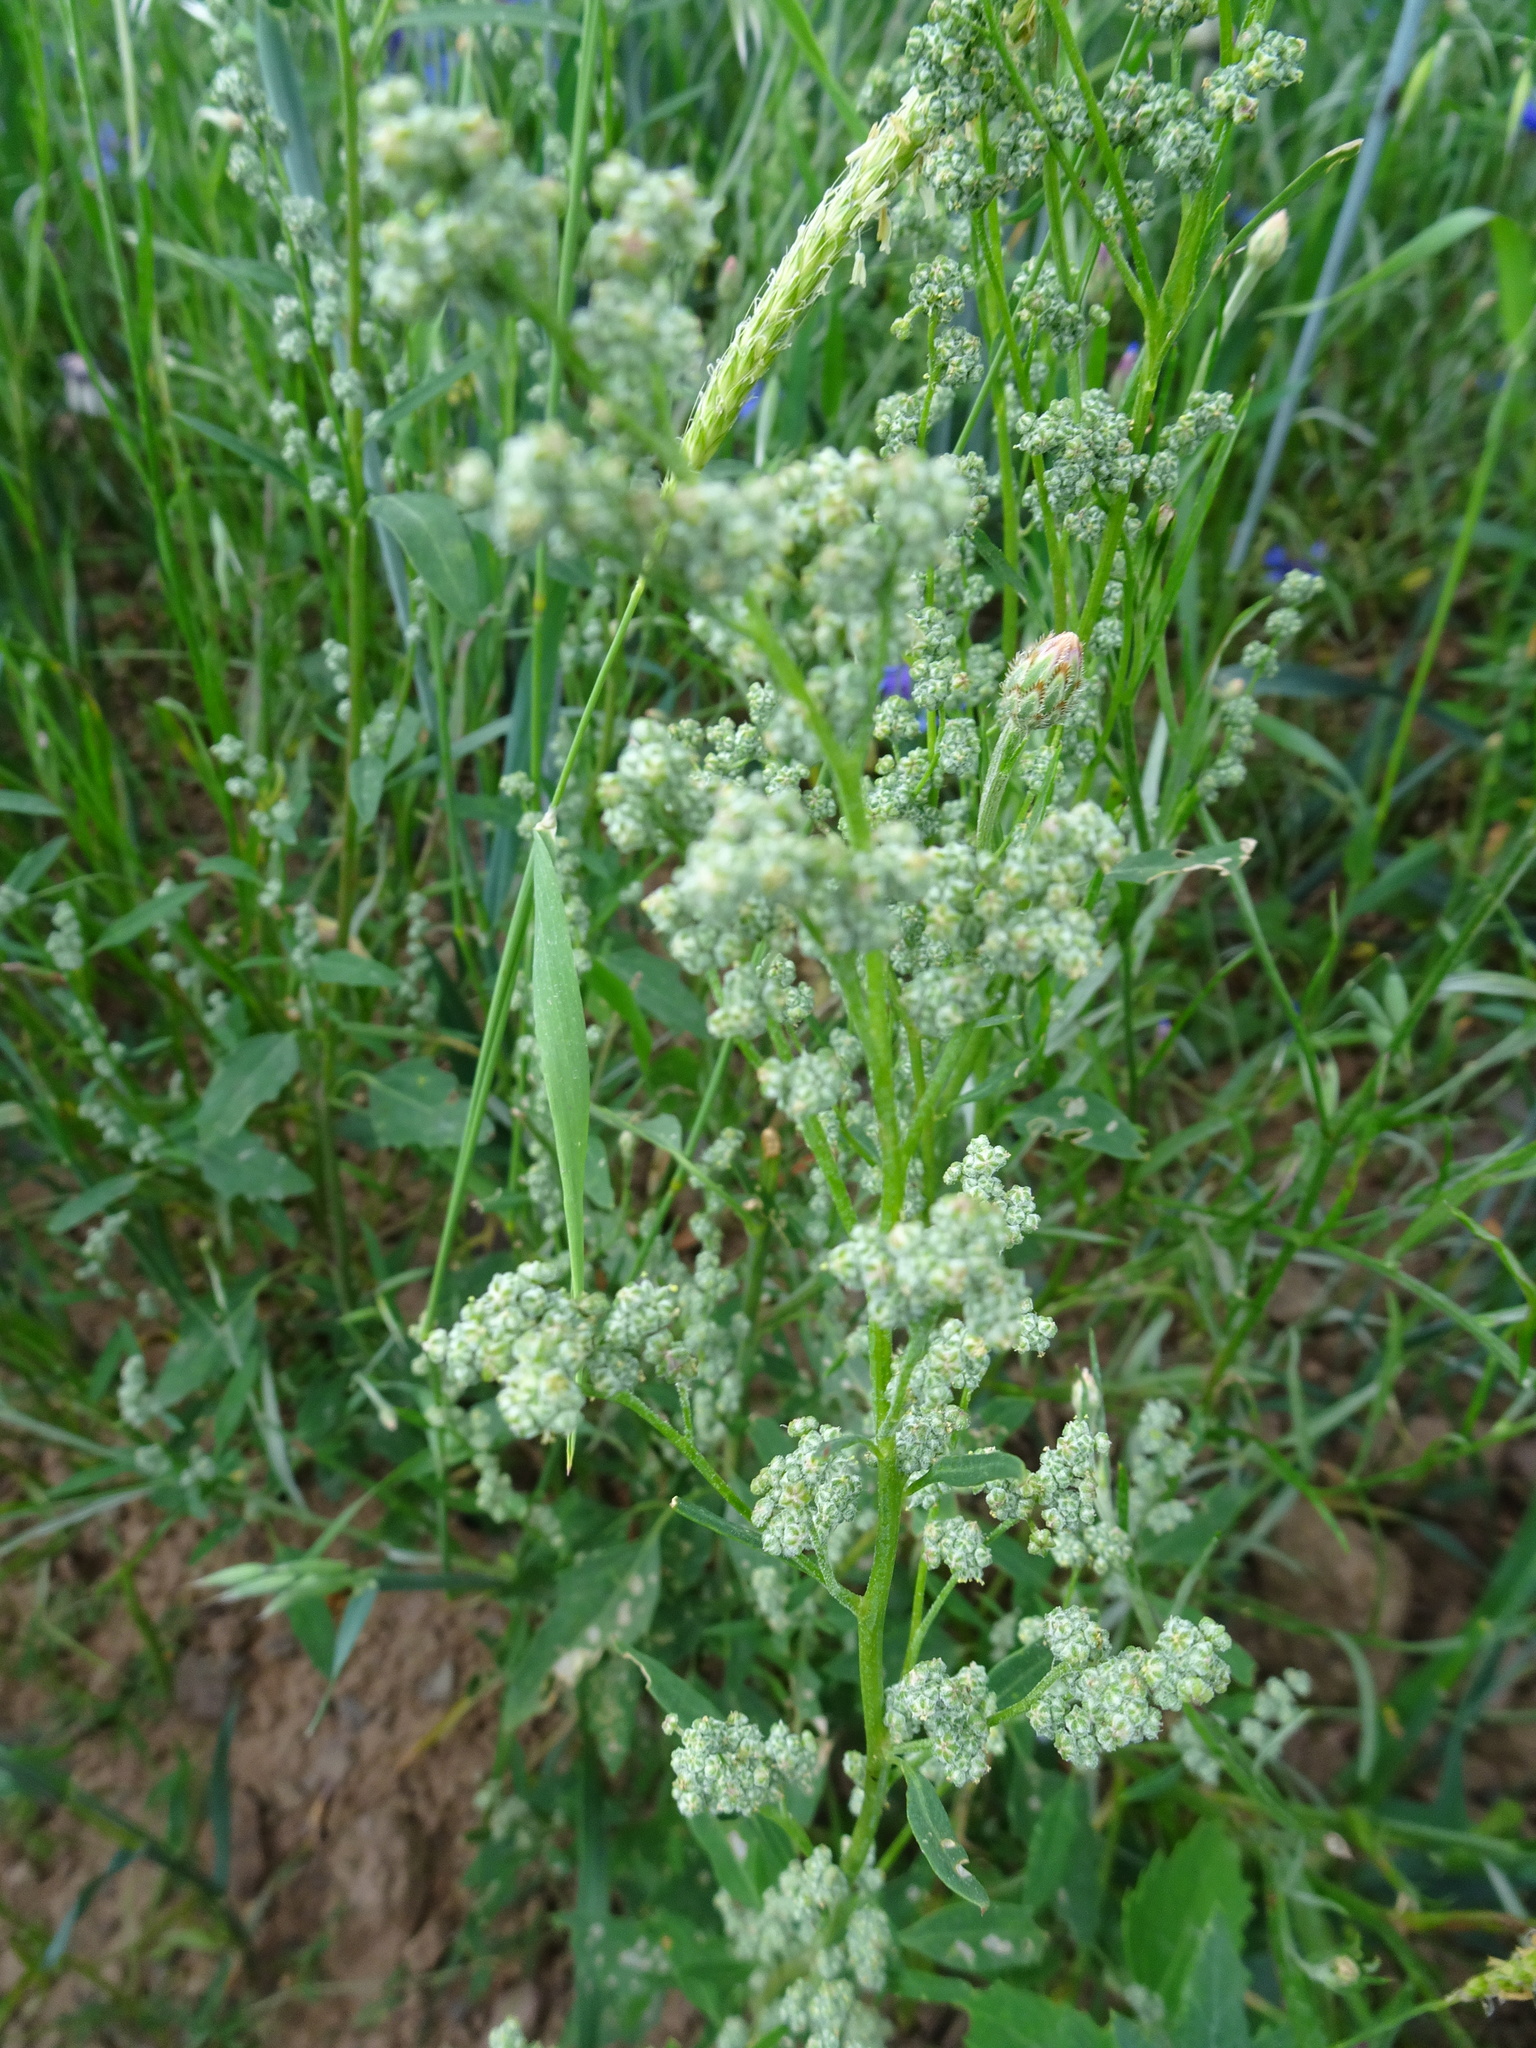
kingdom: Plantae
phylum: Tracheophyta
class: Magnoliopsida
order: Caryophyllales
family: Amaranthaceae
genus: Chenopodium
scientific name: Chenopodium album
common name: Fat-hen
